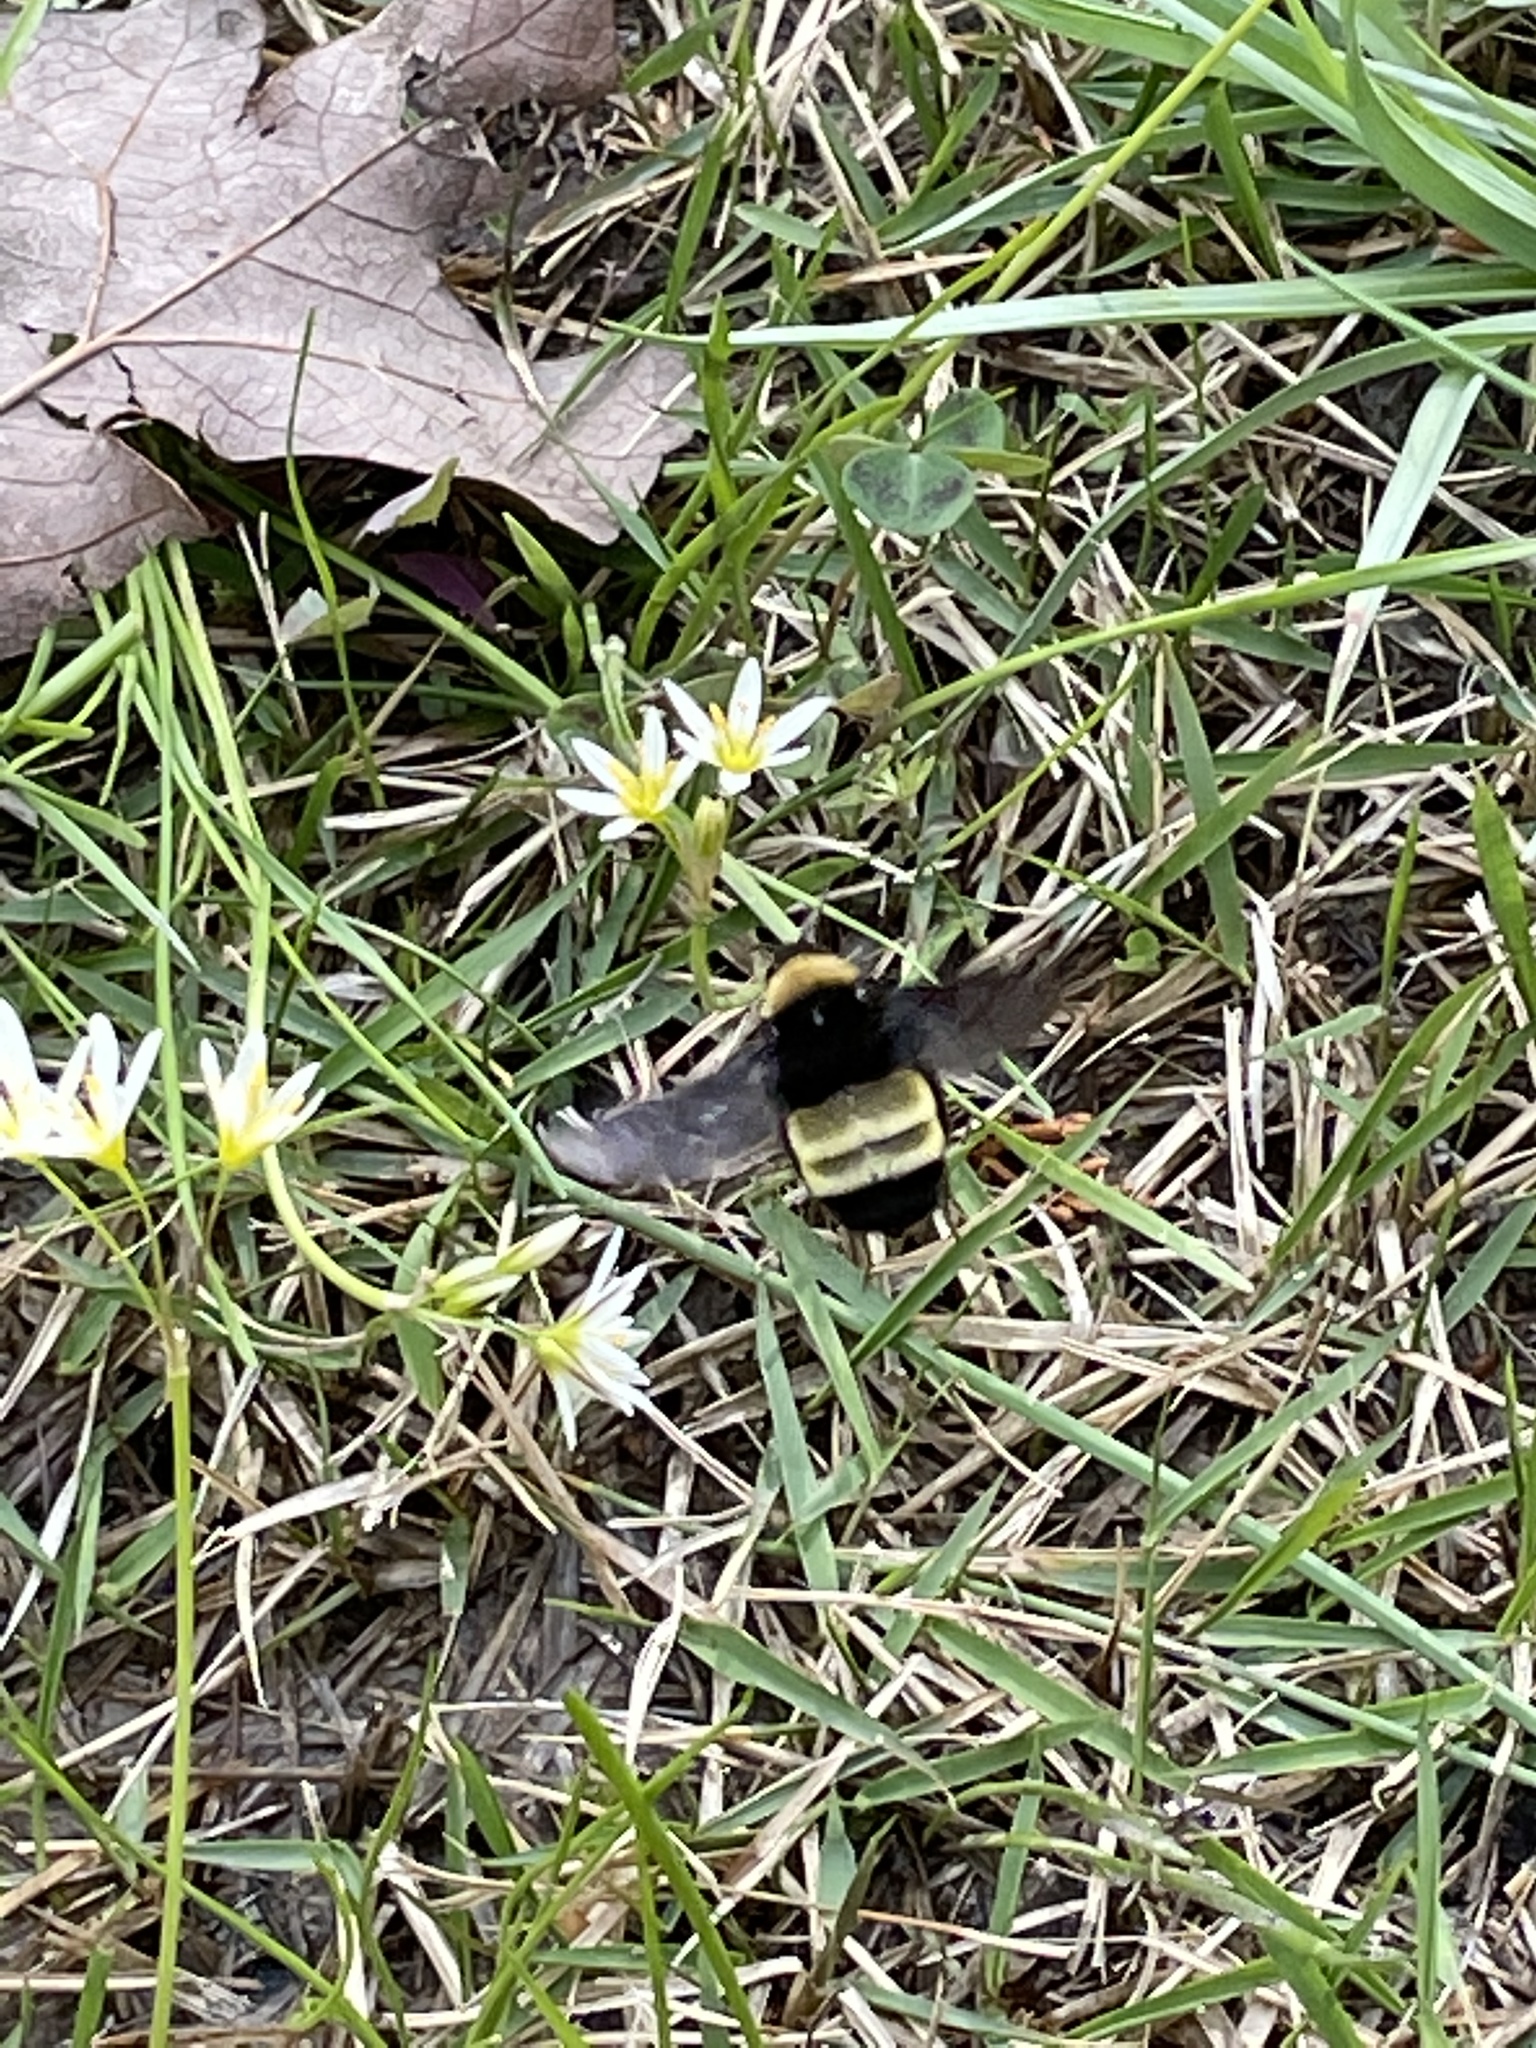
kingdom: Animalia
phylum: Arthropoda
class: Insecta
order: Hymenoptera
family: Apidae
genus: Bombus
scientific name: Bombus pensylvanicus
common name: Bumble bee
